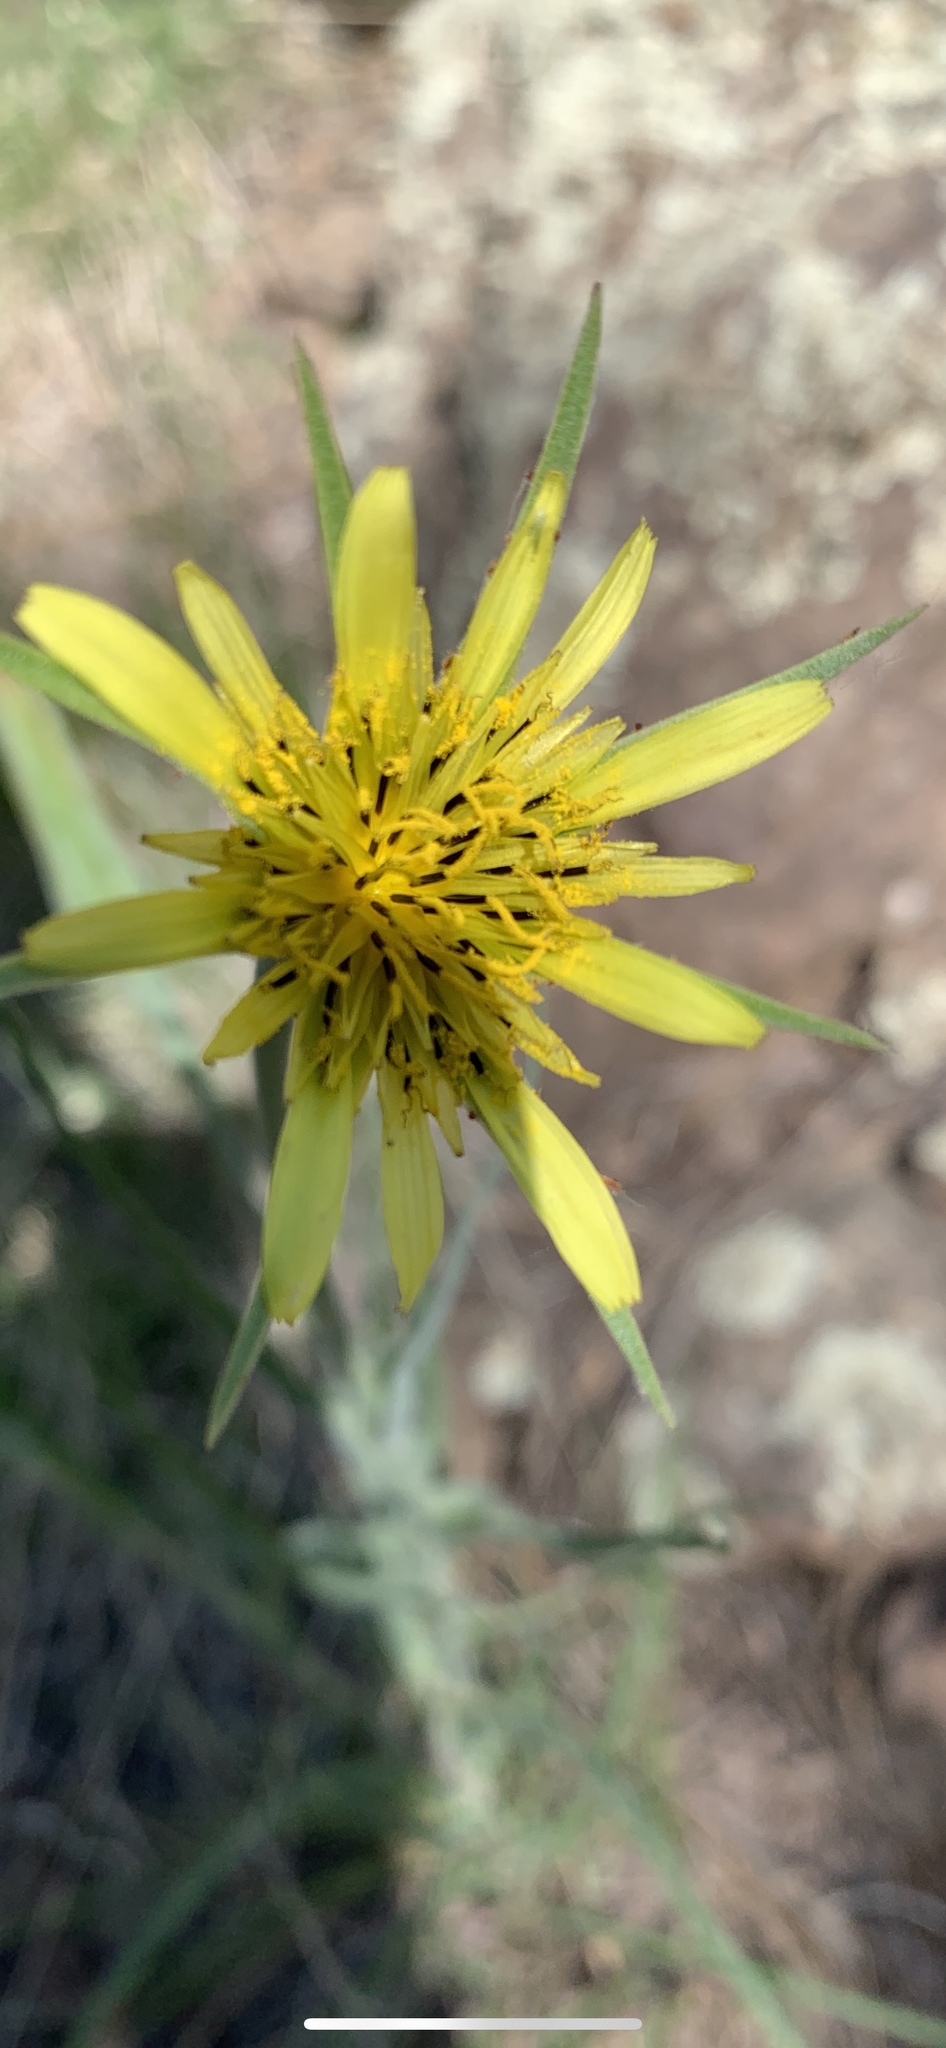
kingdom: Plantae
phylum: Tracheophyta
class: Magnoliopsida
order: Asterales
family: Asteraceae
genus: Tragopogon
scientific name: Tragopogon dubius
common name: Yellow salsify
